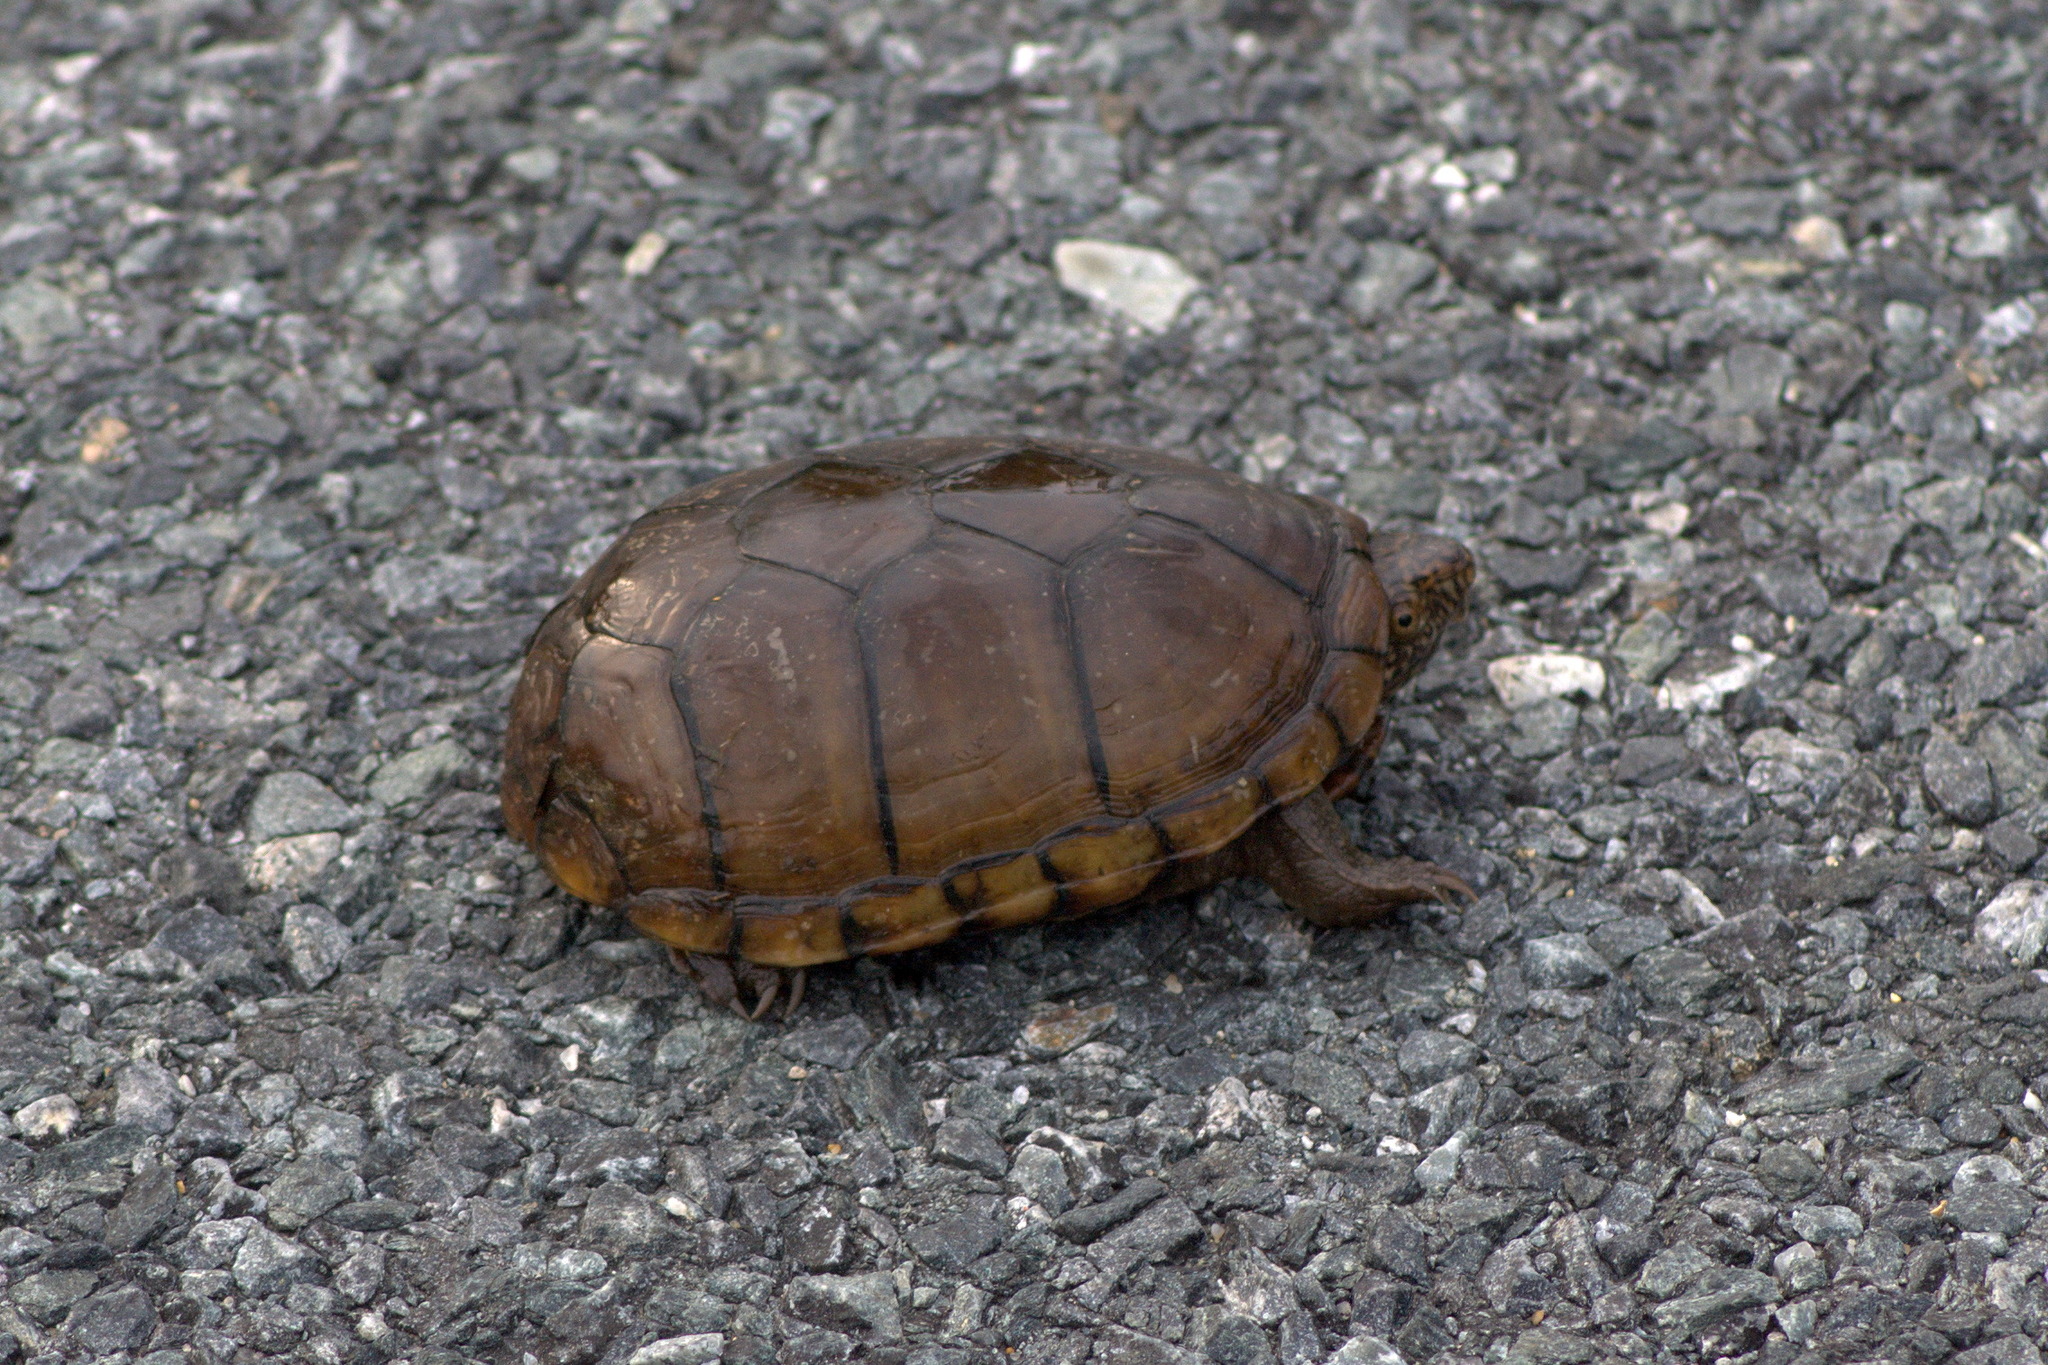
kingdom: Animalia
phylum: Chordata
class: Testudines
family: Kinosternidae
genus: Kinosternon
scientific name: Kinosternon subrubrum
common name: Eastern mud turtle
